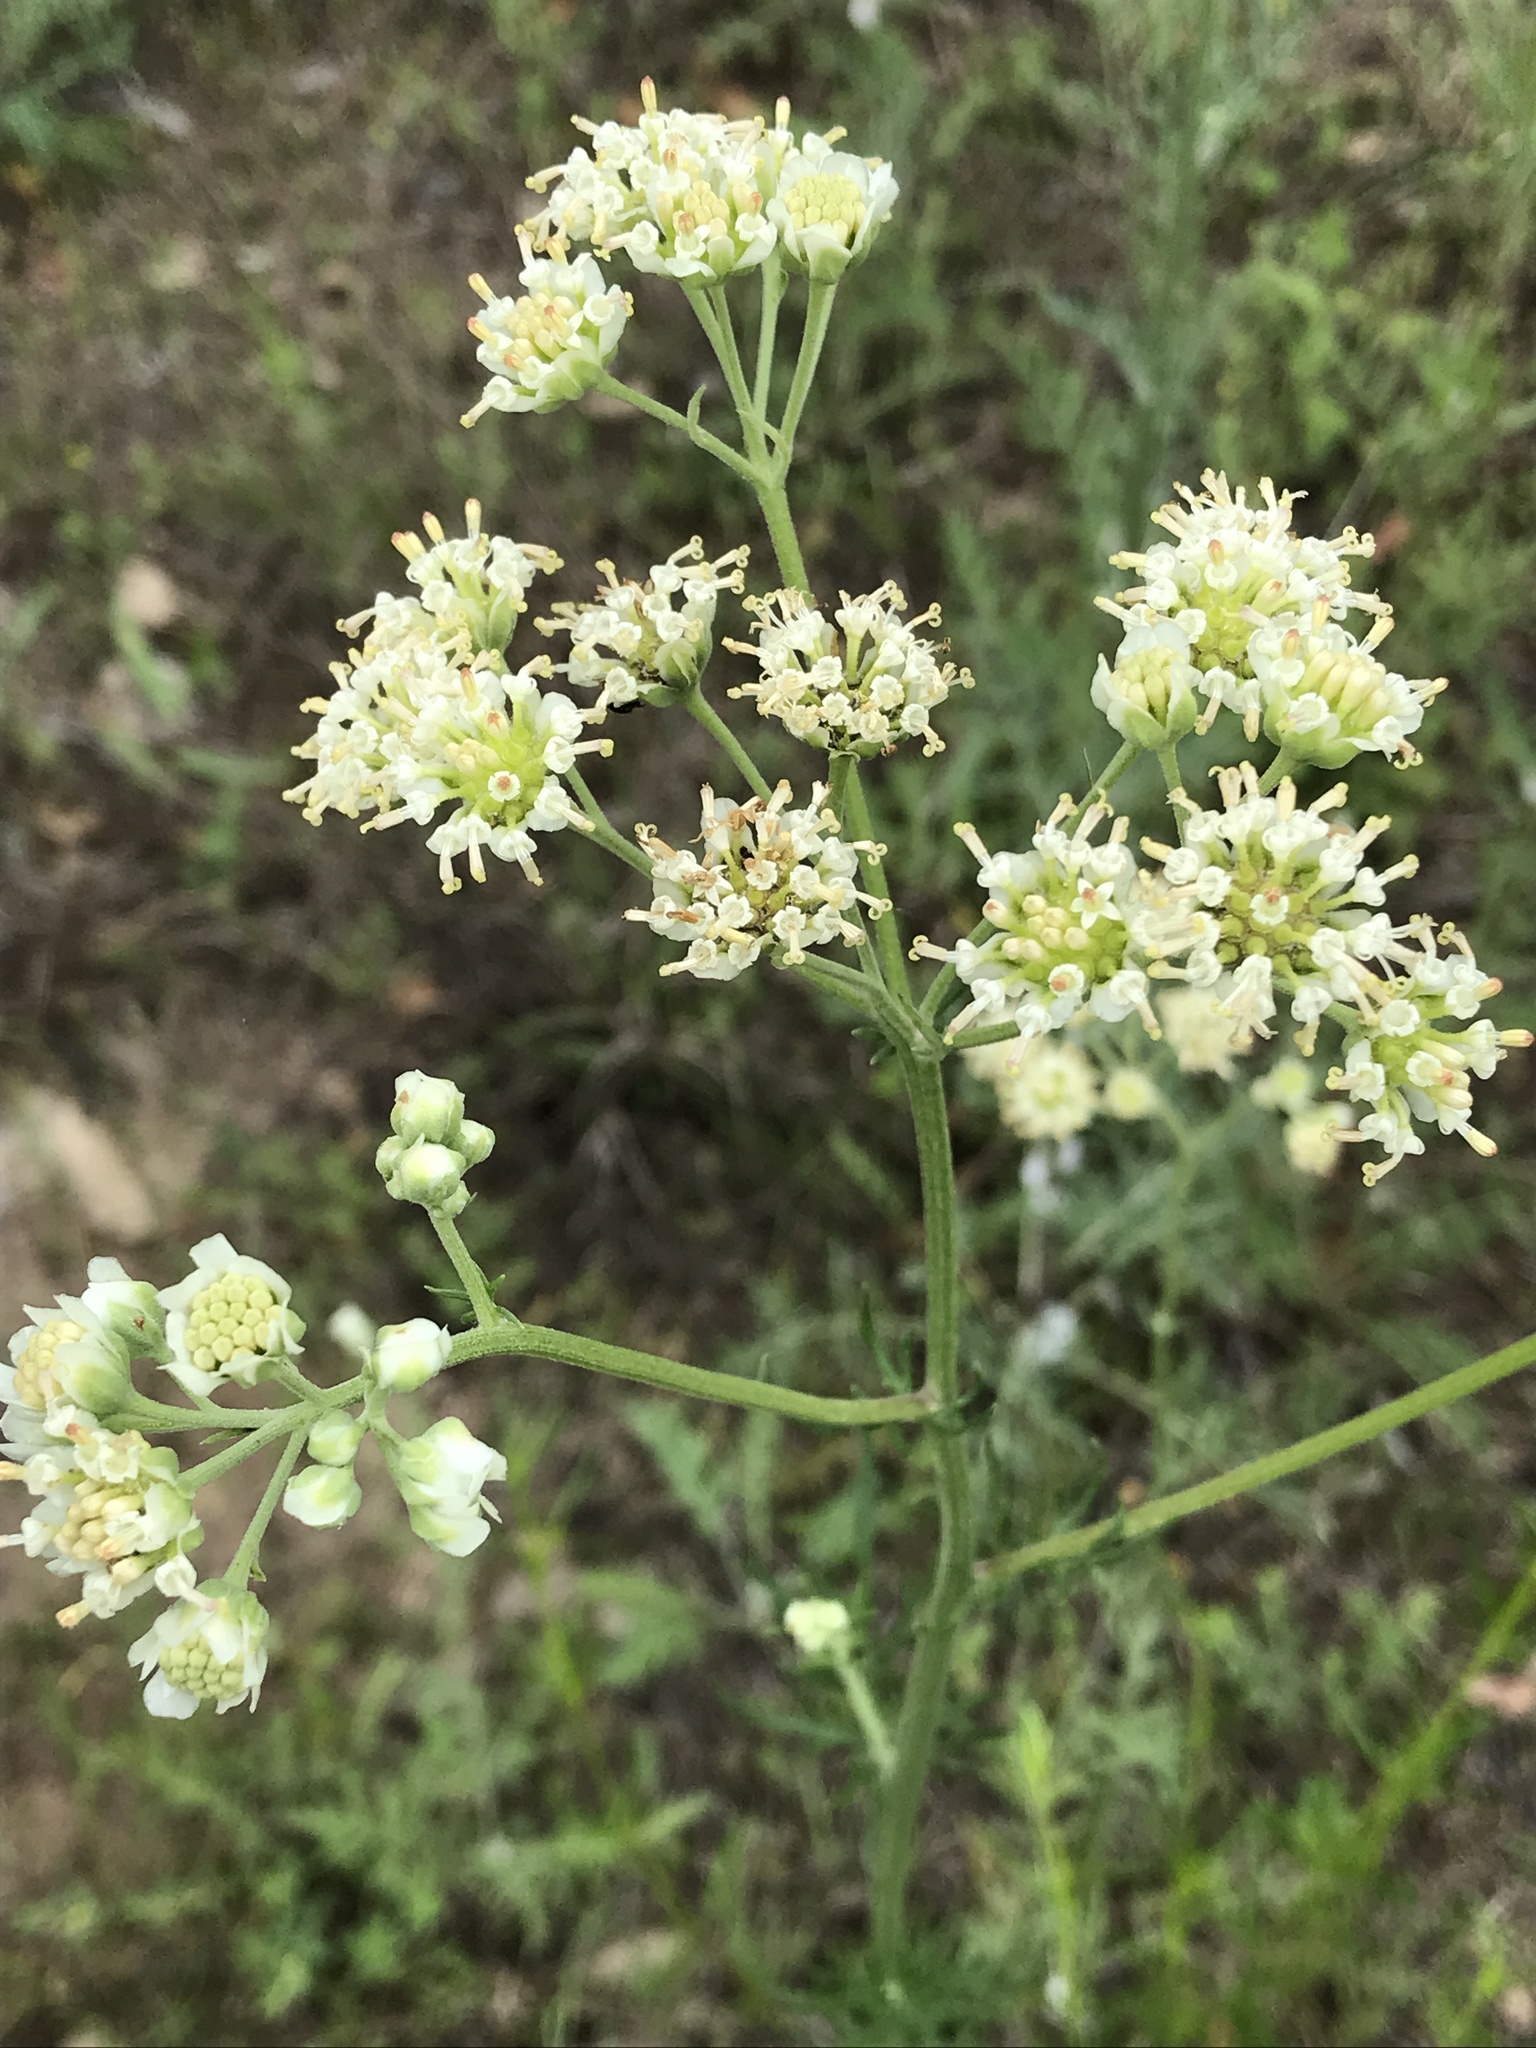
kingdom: Plantae
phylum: Tracheophyta
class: Magnoliopsida
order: Asterales
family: Asteraceae
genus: Hymenopappus
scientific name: Hymenopappus scabiosaeus
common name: Carolina woollywhite
